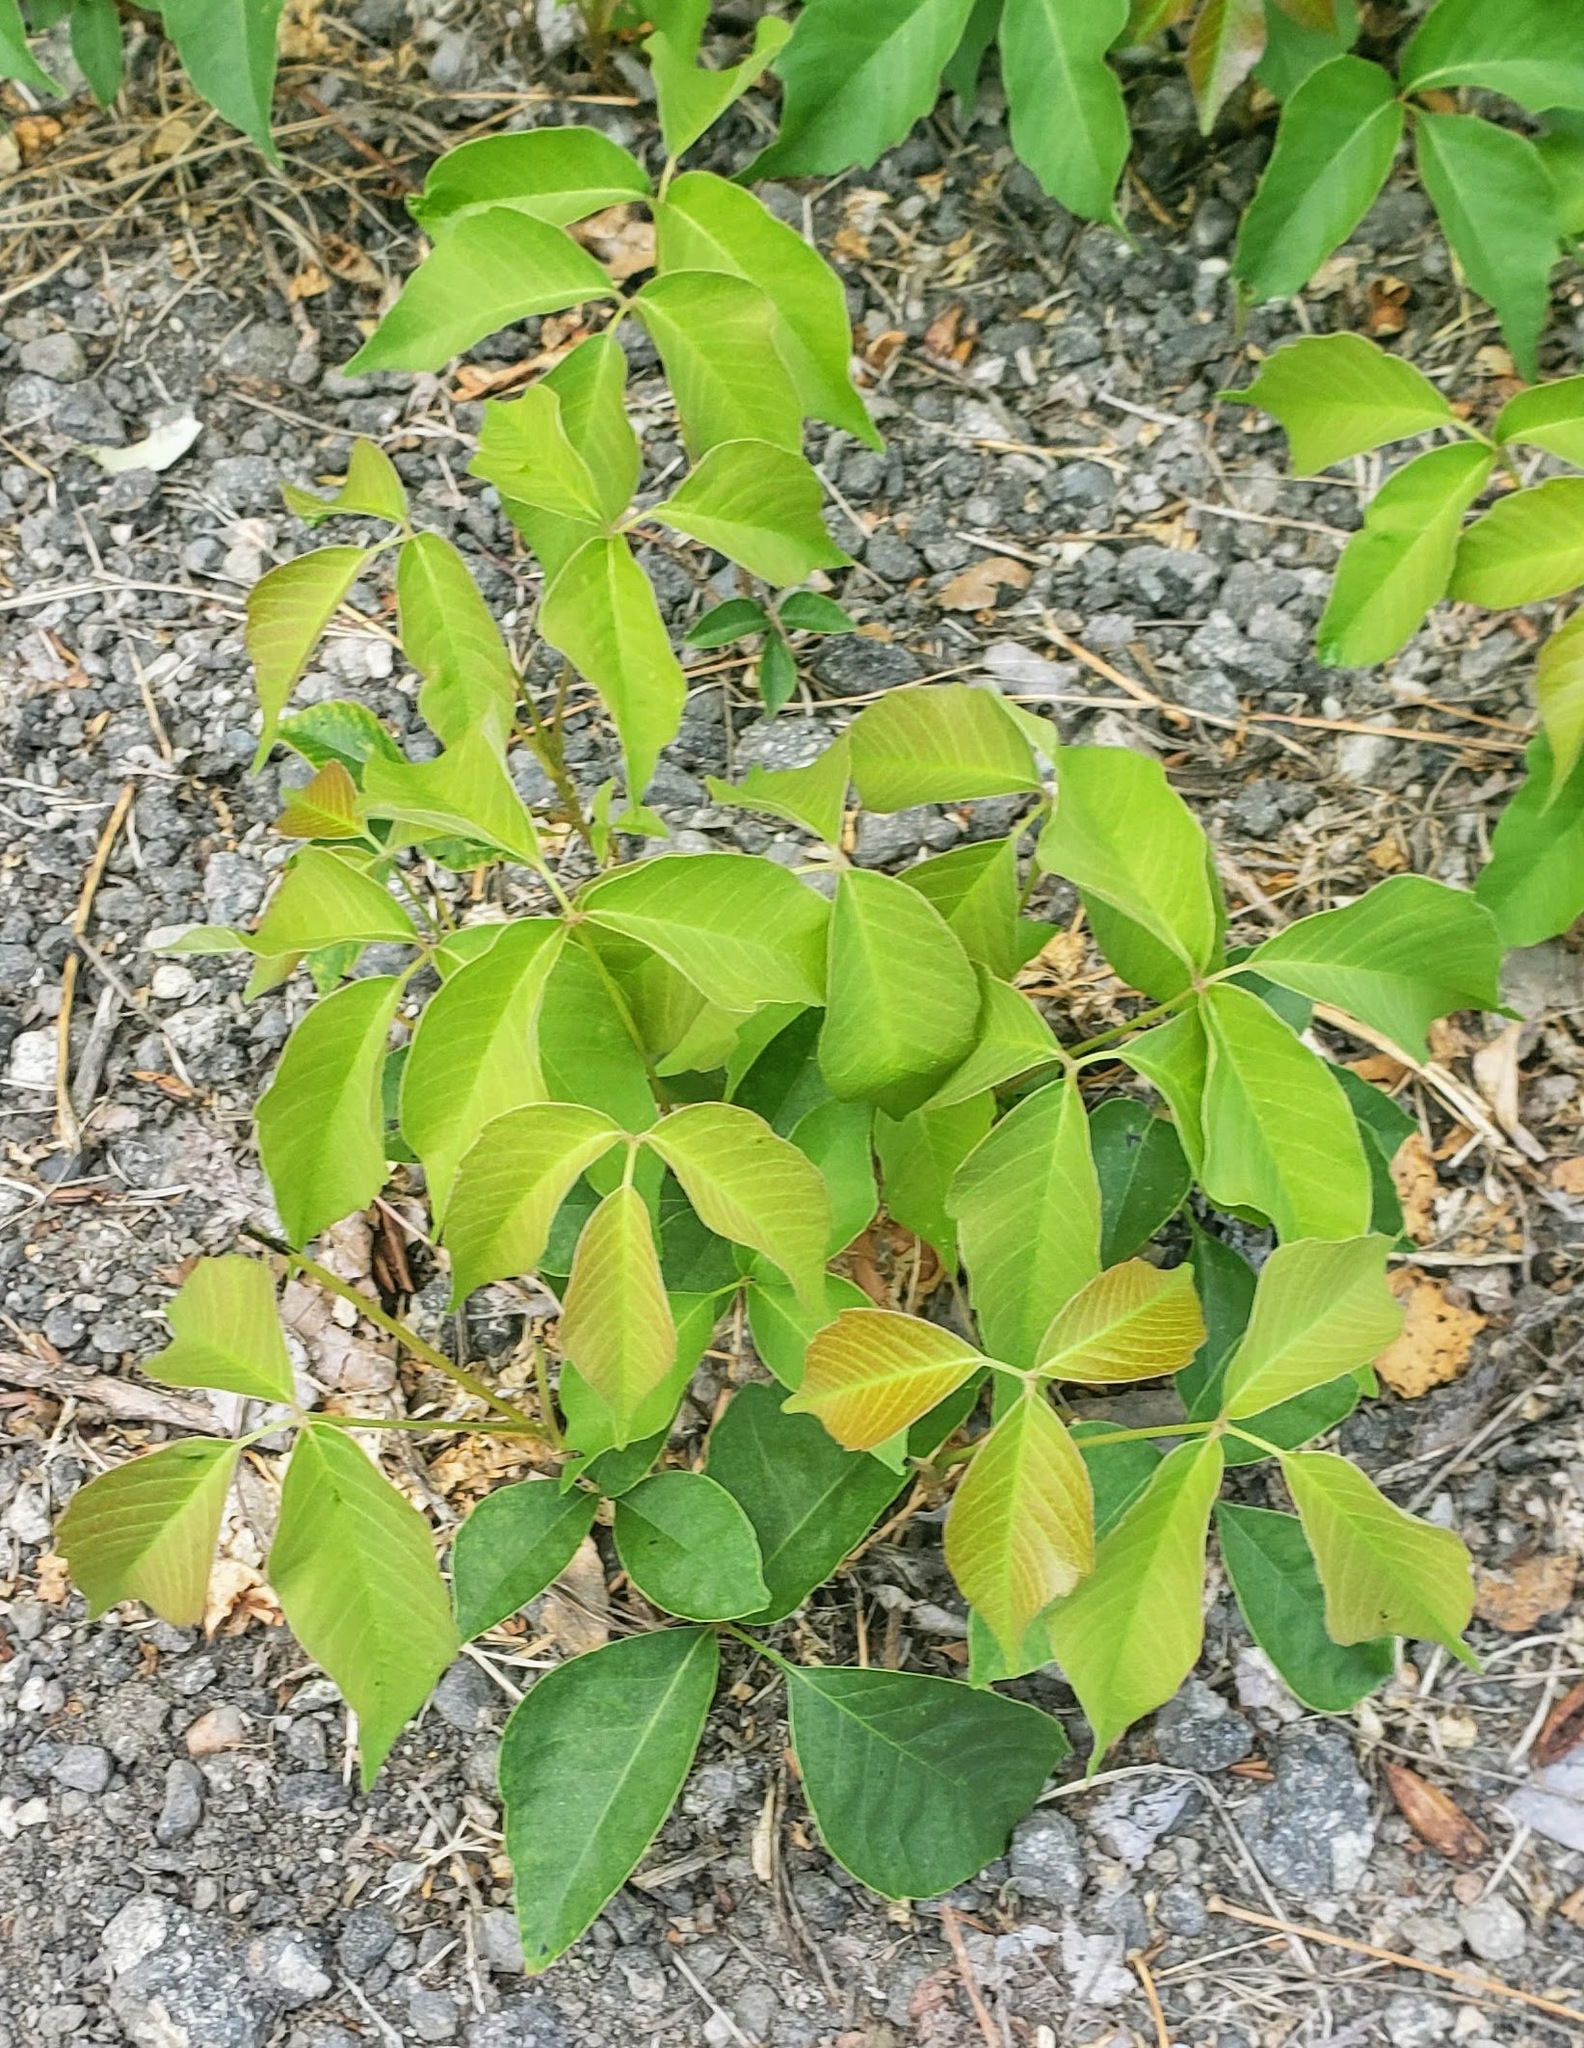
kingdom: Plantae
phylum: Tracheophyta
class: Magnoliopsida
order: Sapindales
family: Anacardiaceae
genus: Toxicodendron
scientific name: Toxicodendron rydbergii
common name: Rydberg's poison-ivy
